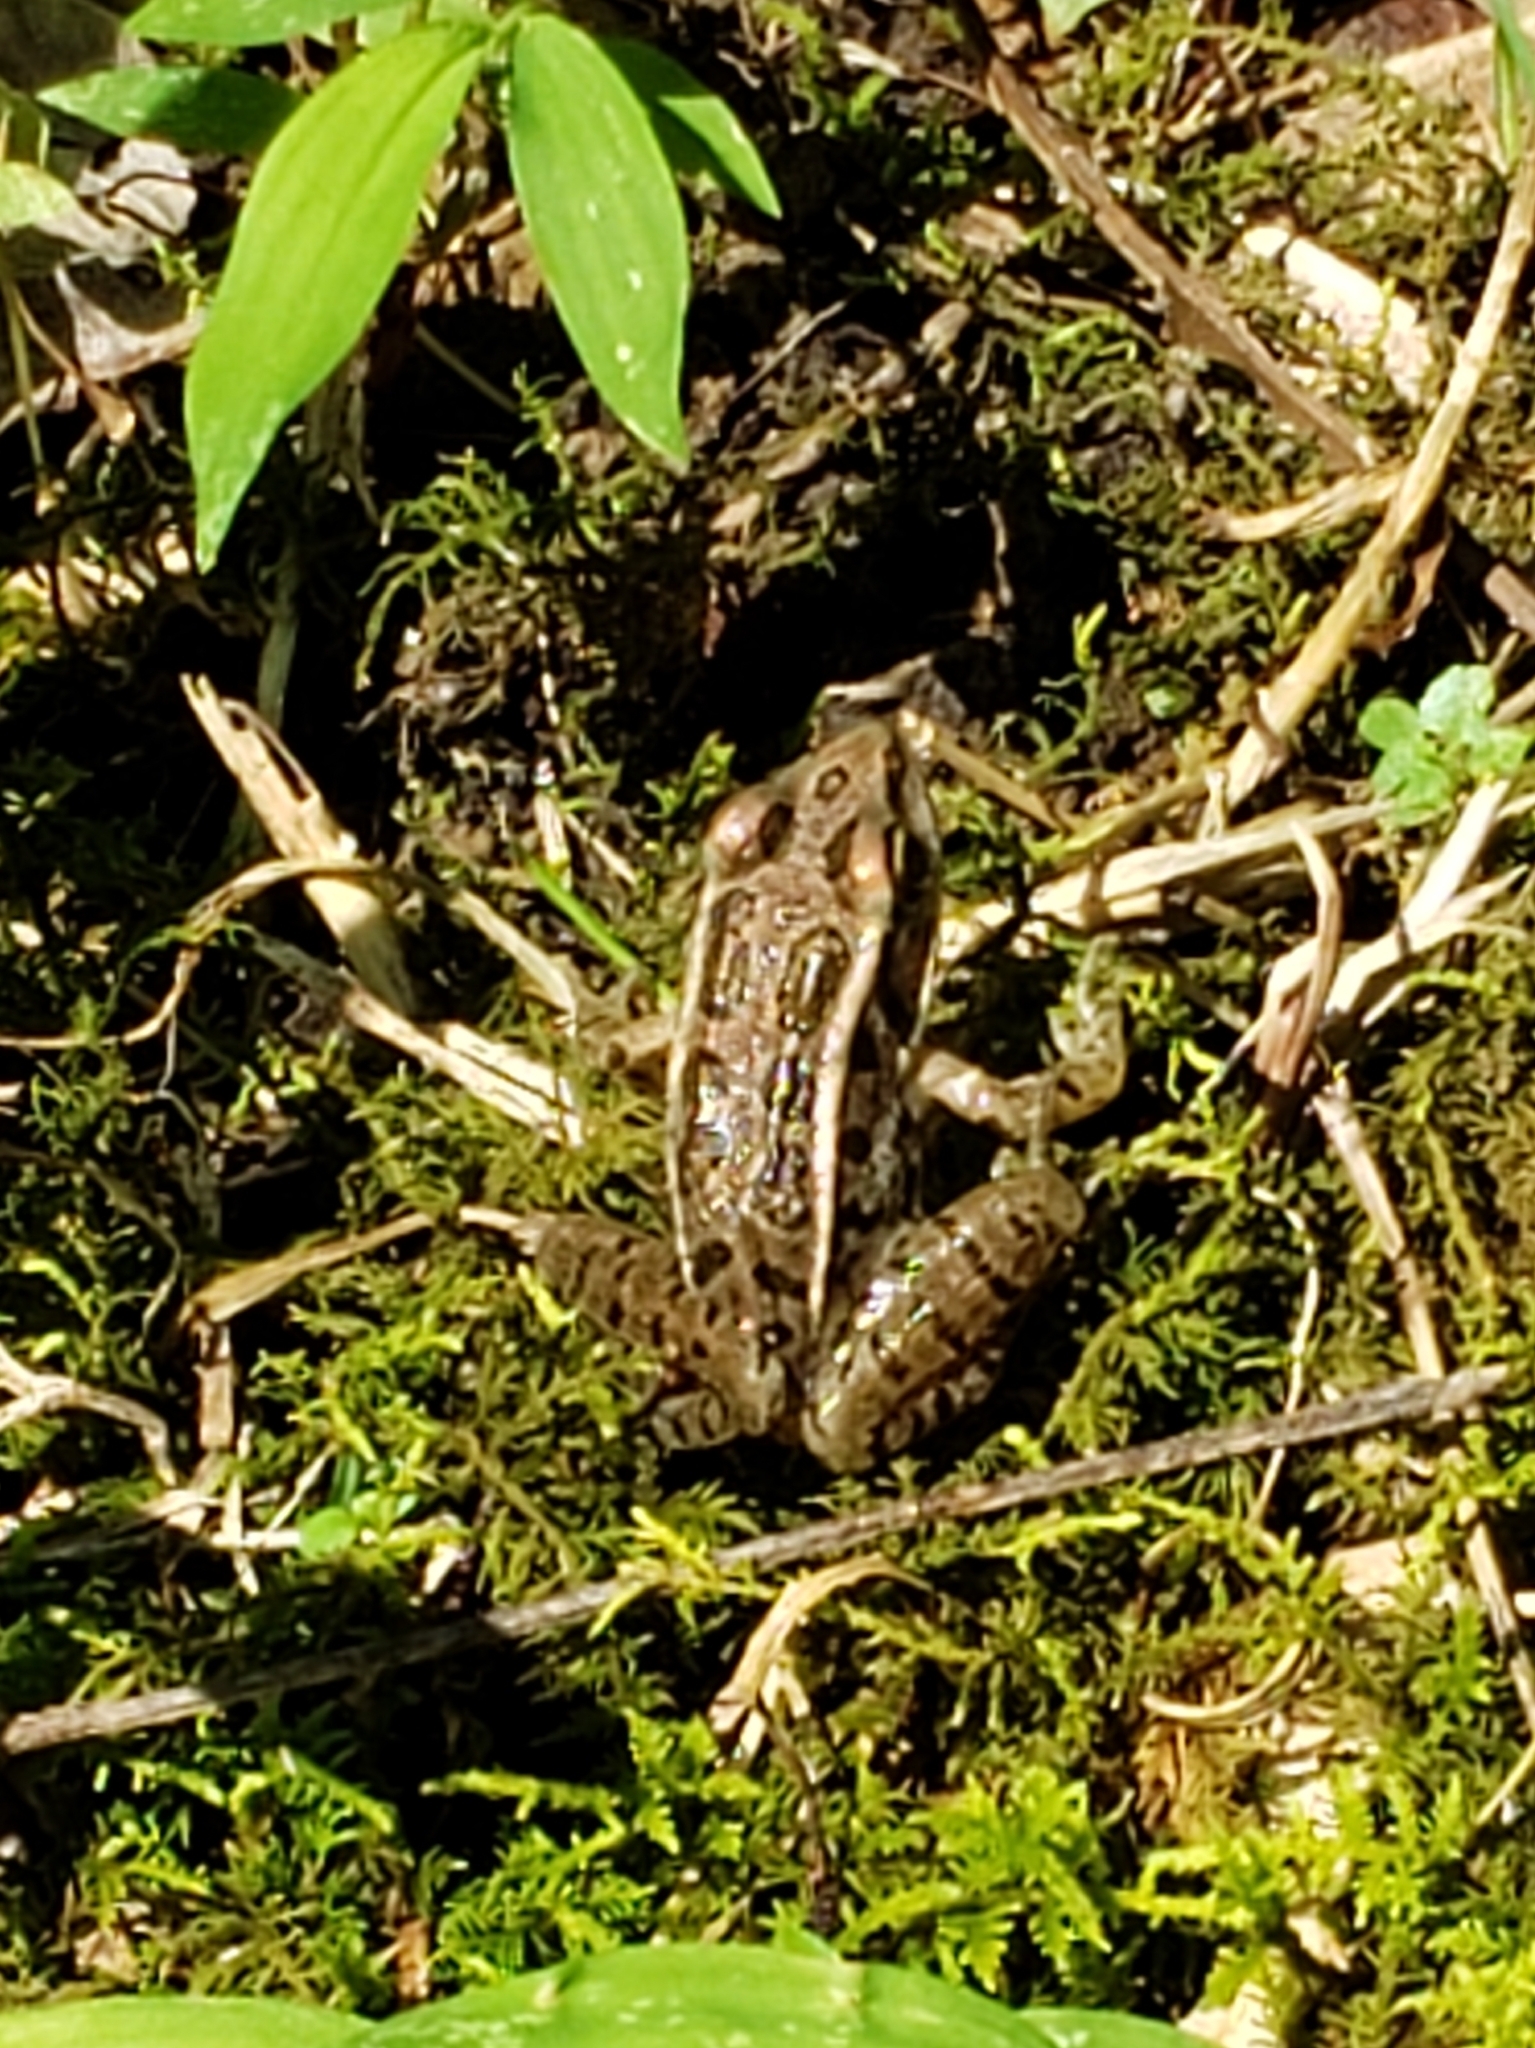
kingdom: Animalia
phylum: Chordata
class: Amphibia
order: Anura
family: Ranidae
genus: Lithobates
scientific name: Lithobates palustris
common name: Pickerel frog
